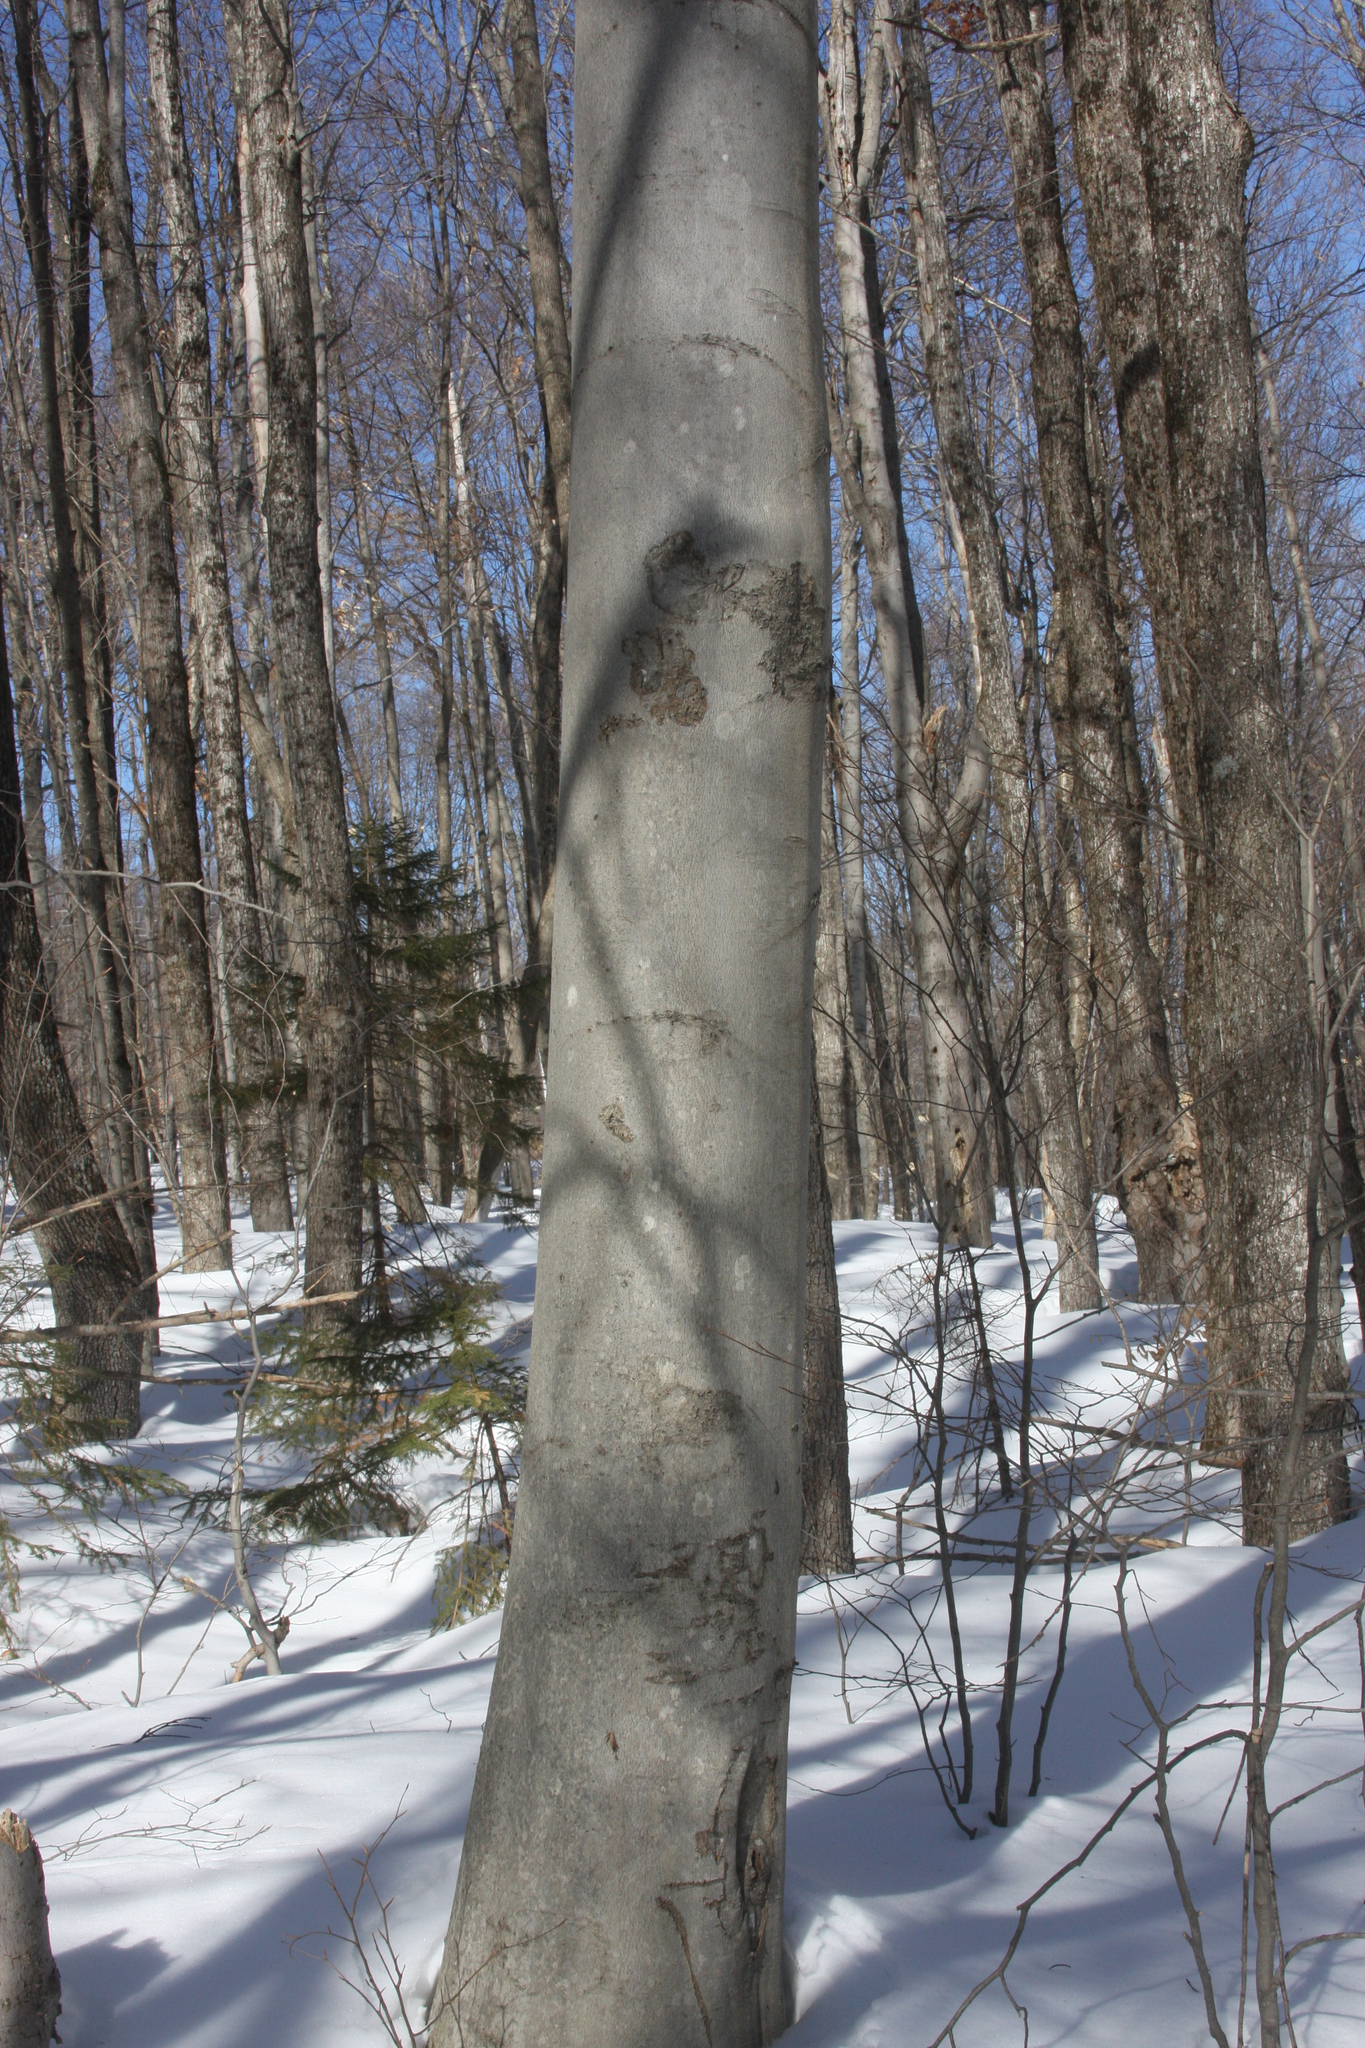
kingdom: Plantae
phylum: Tracheophyta
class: Magnoliopsida
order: Fagales
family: Fagaceae
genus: Fagus
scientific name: Fagus grandifolia
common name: American beech
